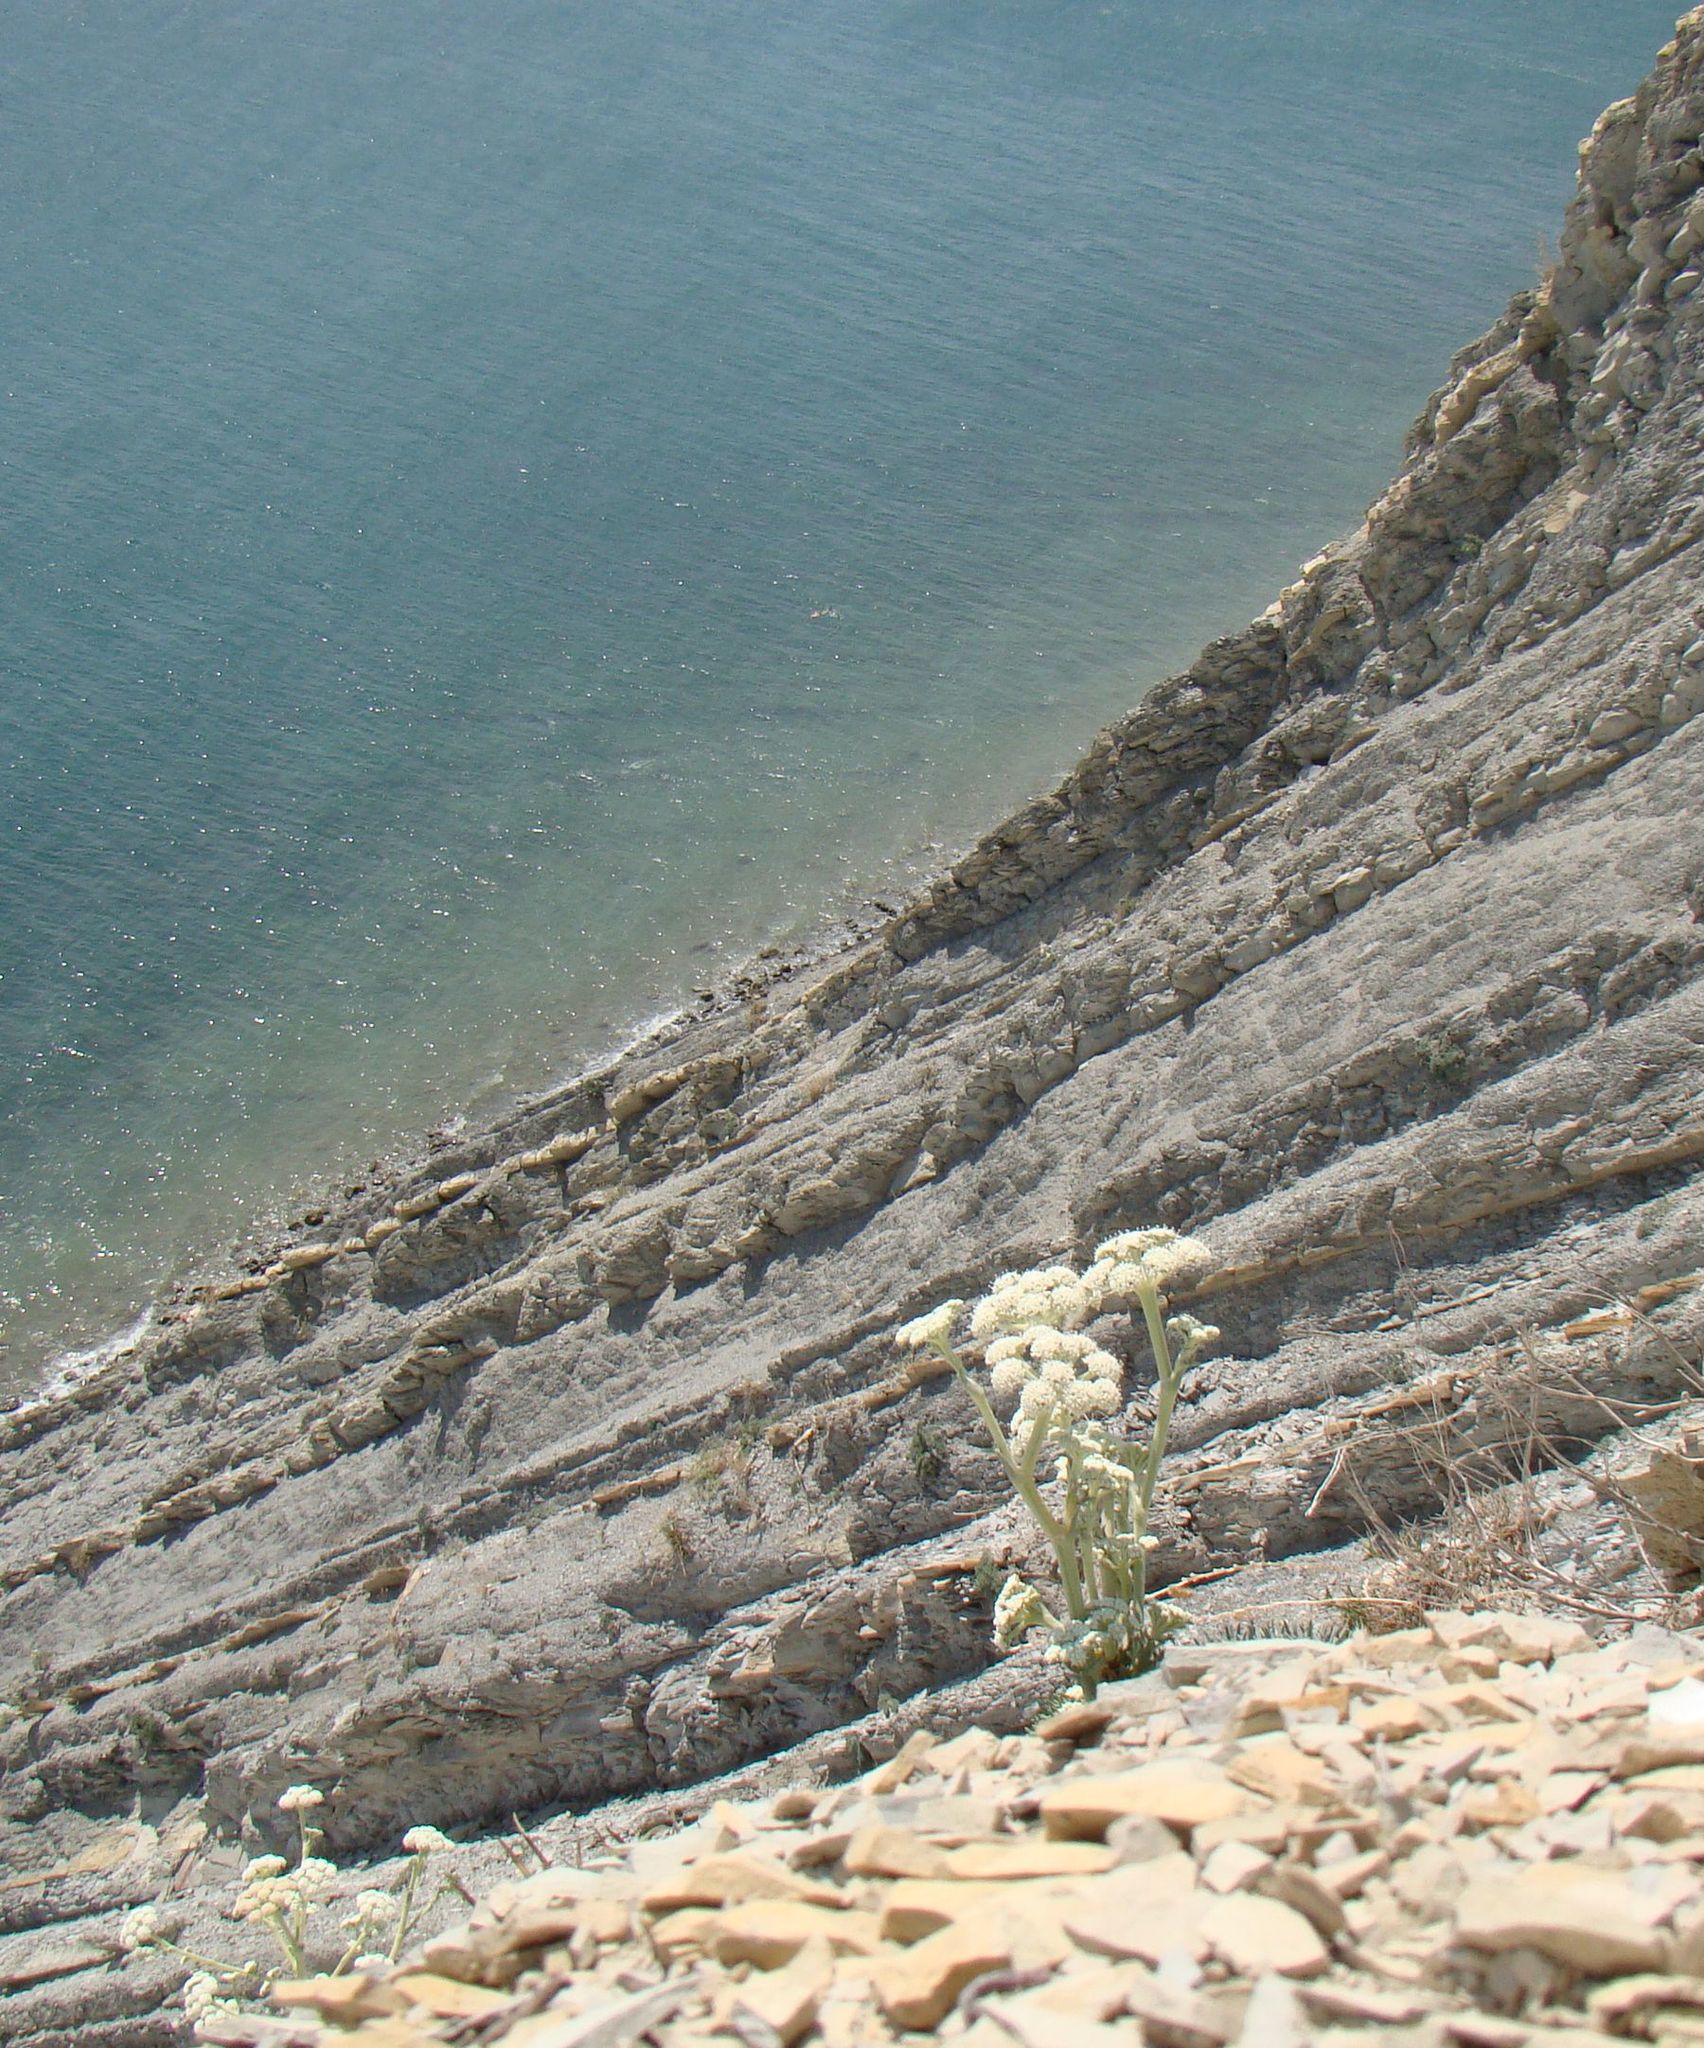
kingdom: Plantae
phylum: Tracheophyta
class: Magnoliopsida
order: Apiales
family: Apiaceae
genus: Seseli
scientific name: Seseli ponticum
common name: Pontic seseli
